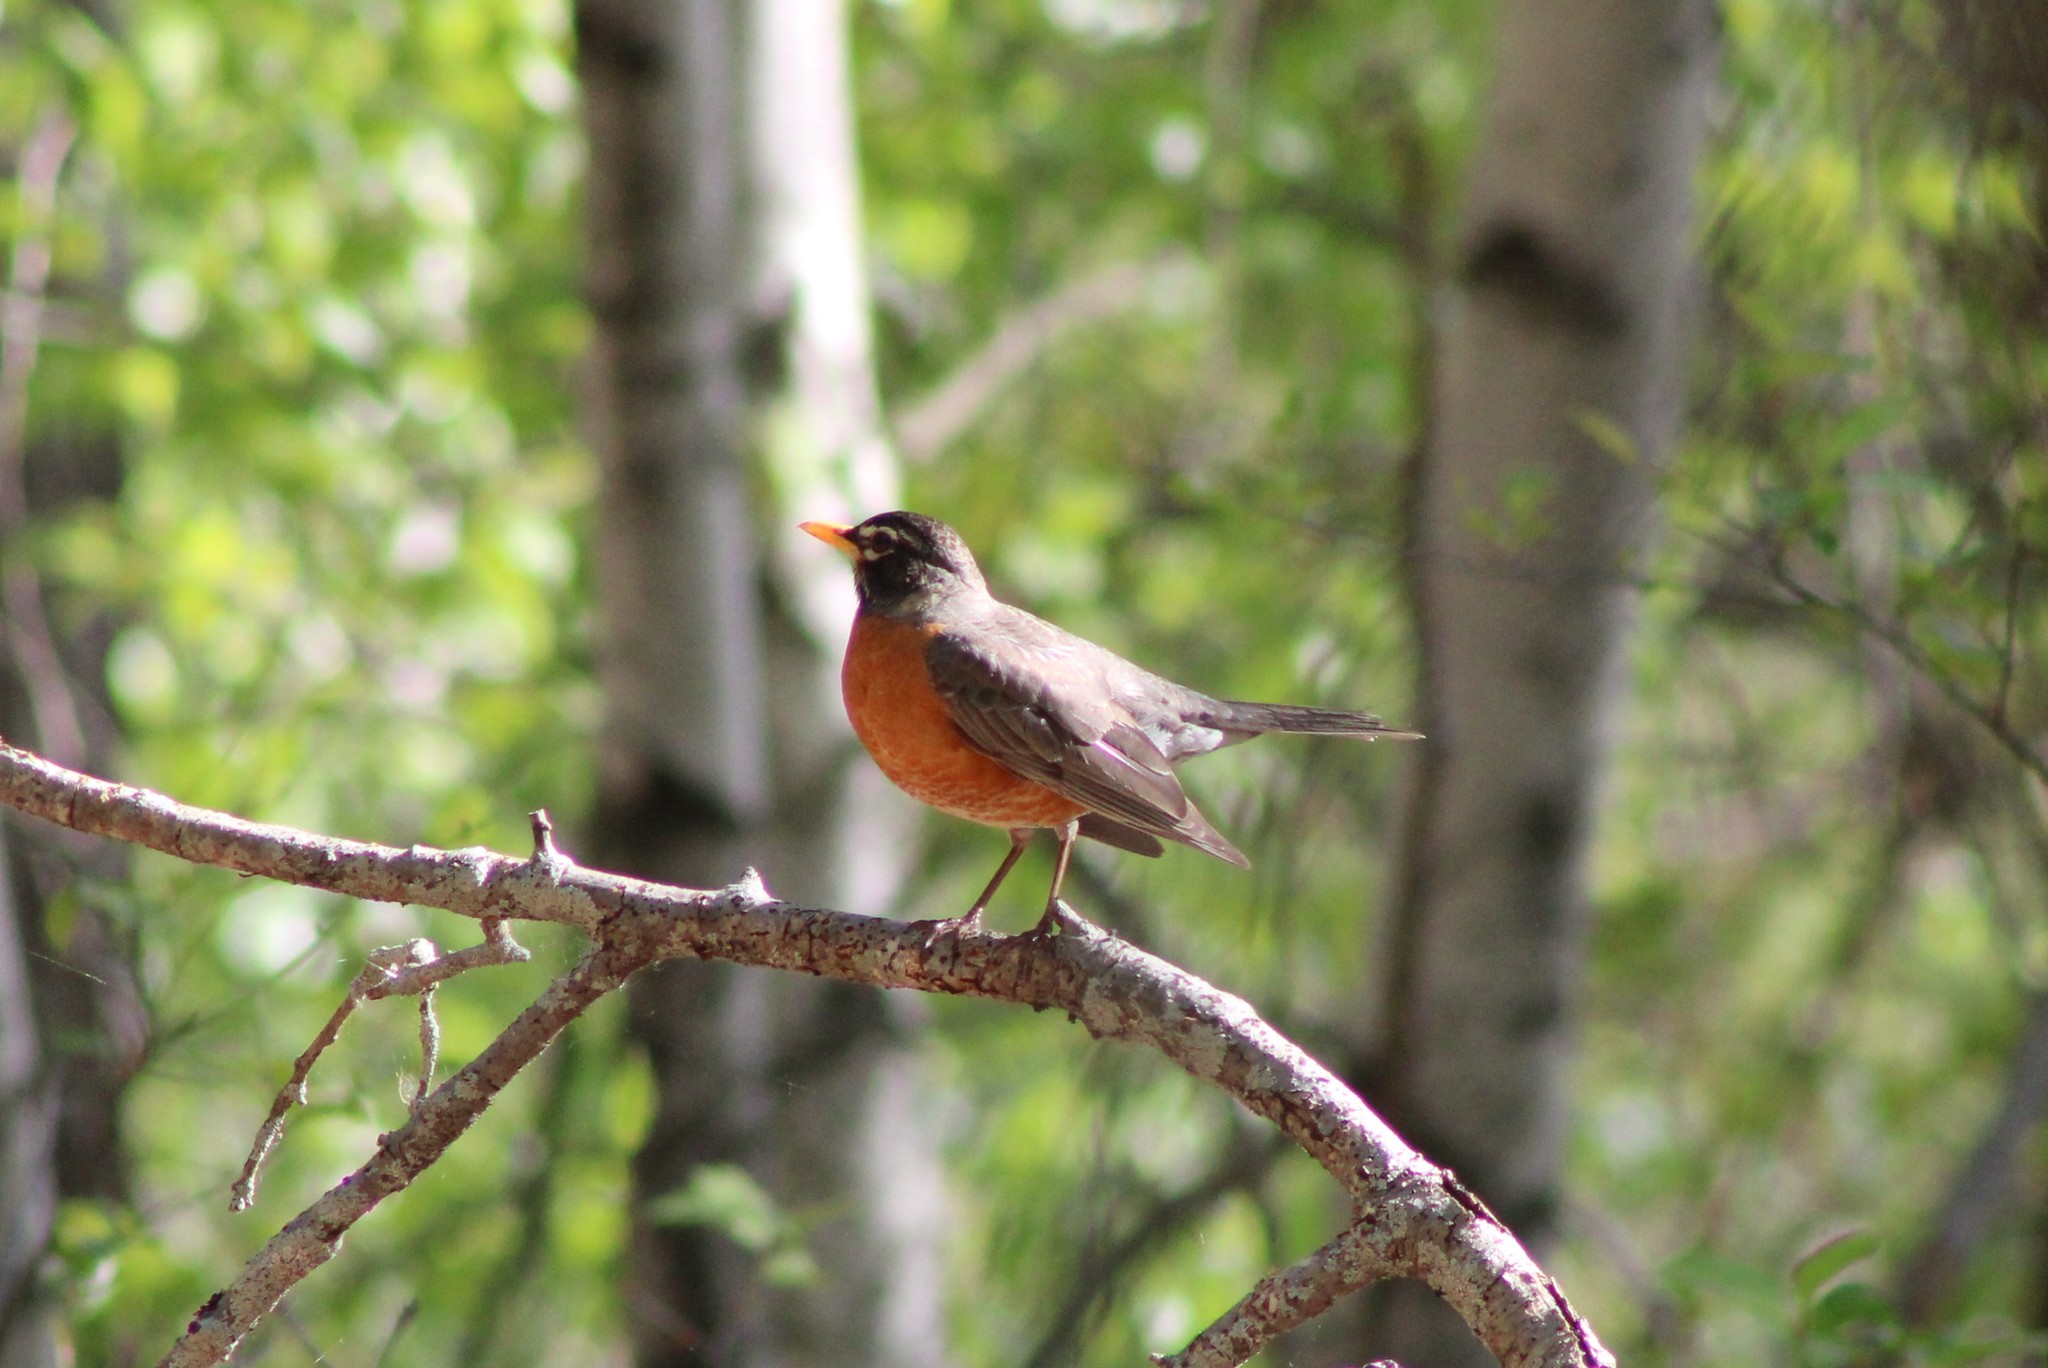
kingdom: Animalia
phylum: Chordata
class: Aves
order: Passeriformes
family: Turdidae
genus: Turdus
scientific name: Turdus migratorius
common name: American robin
